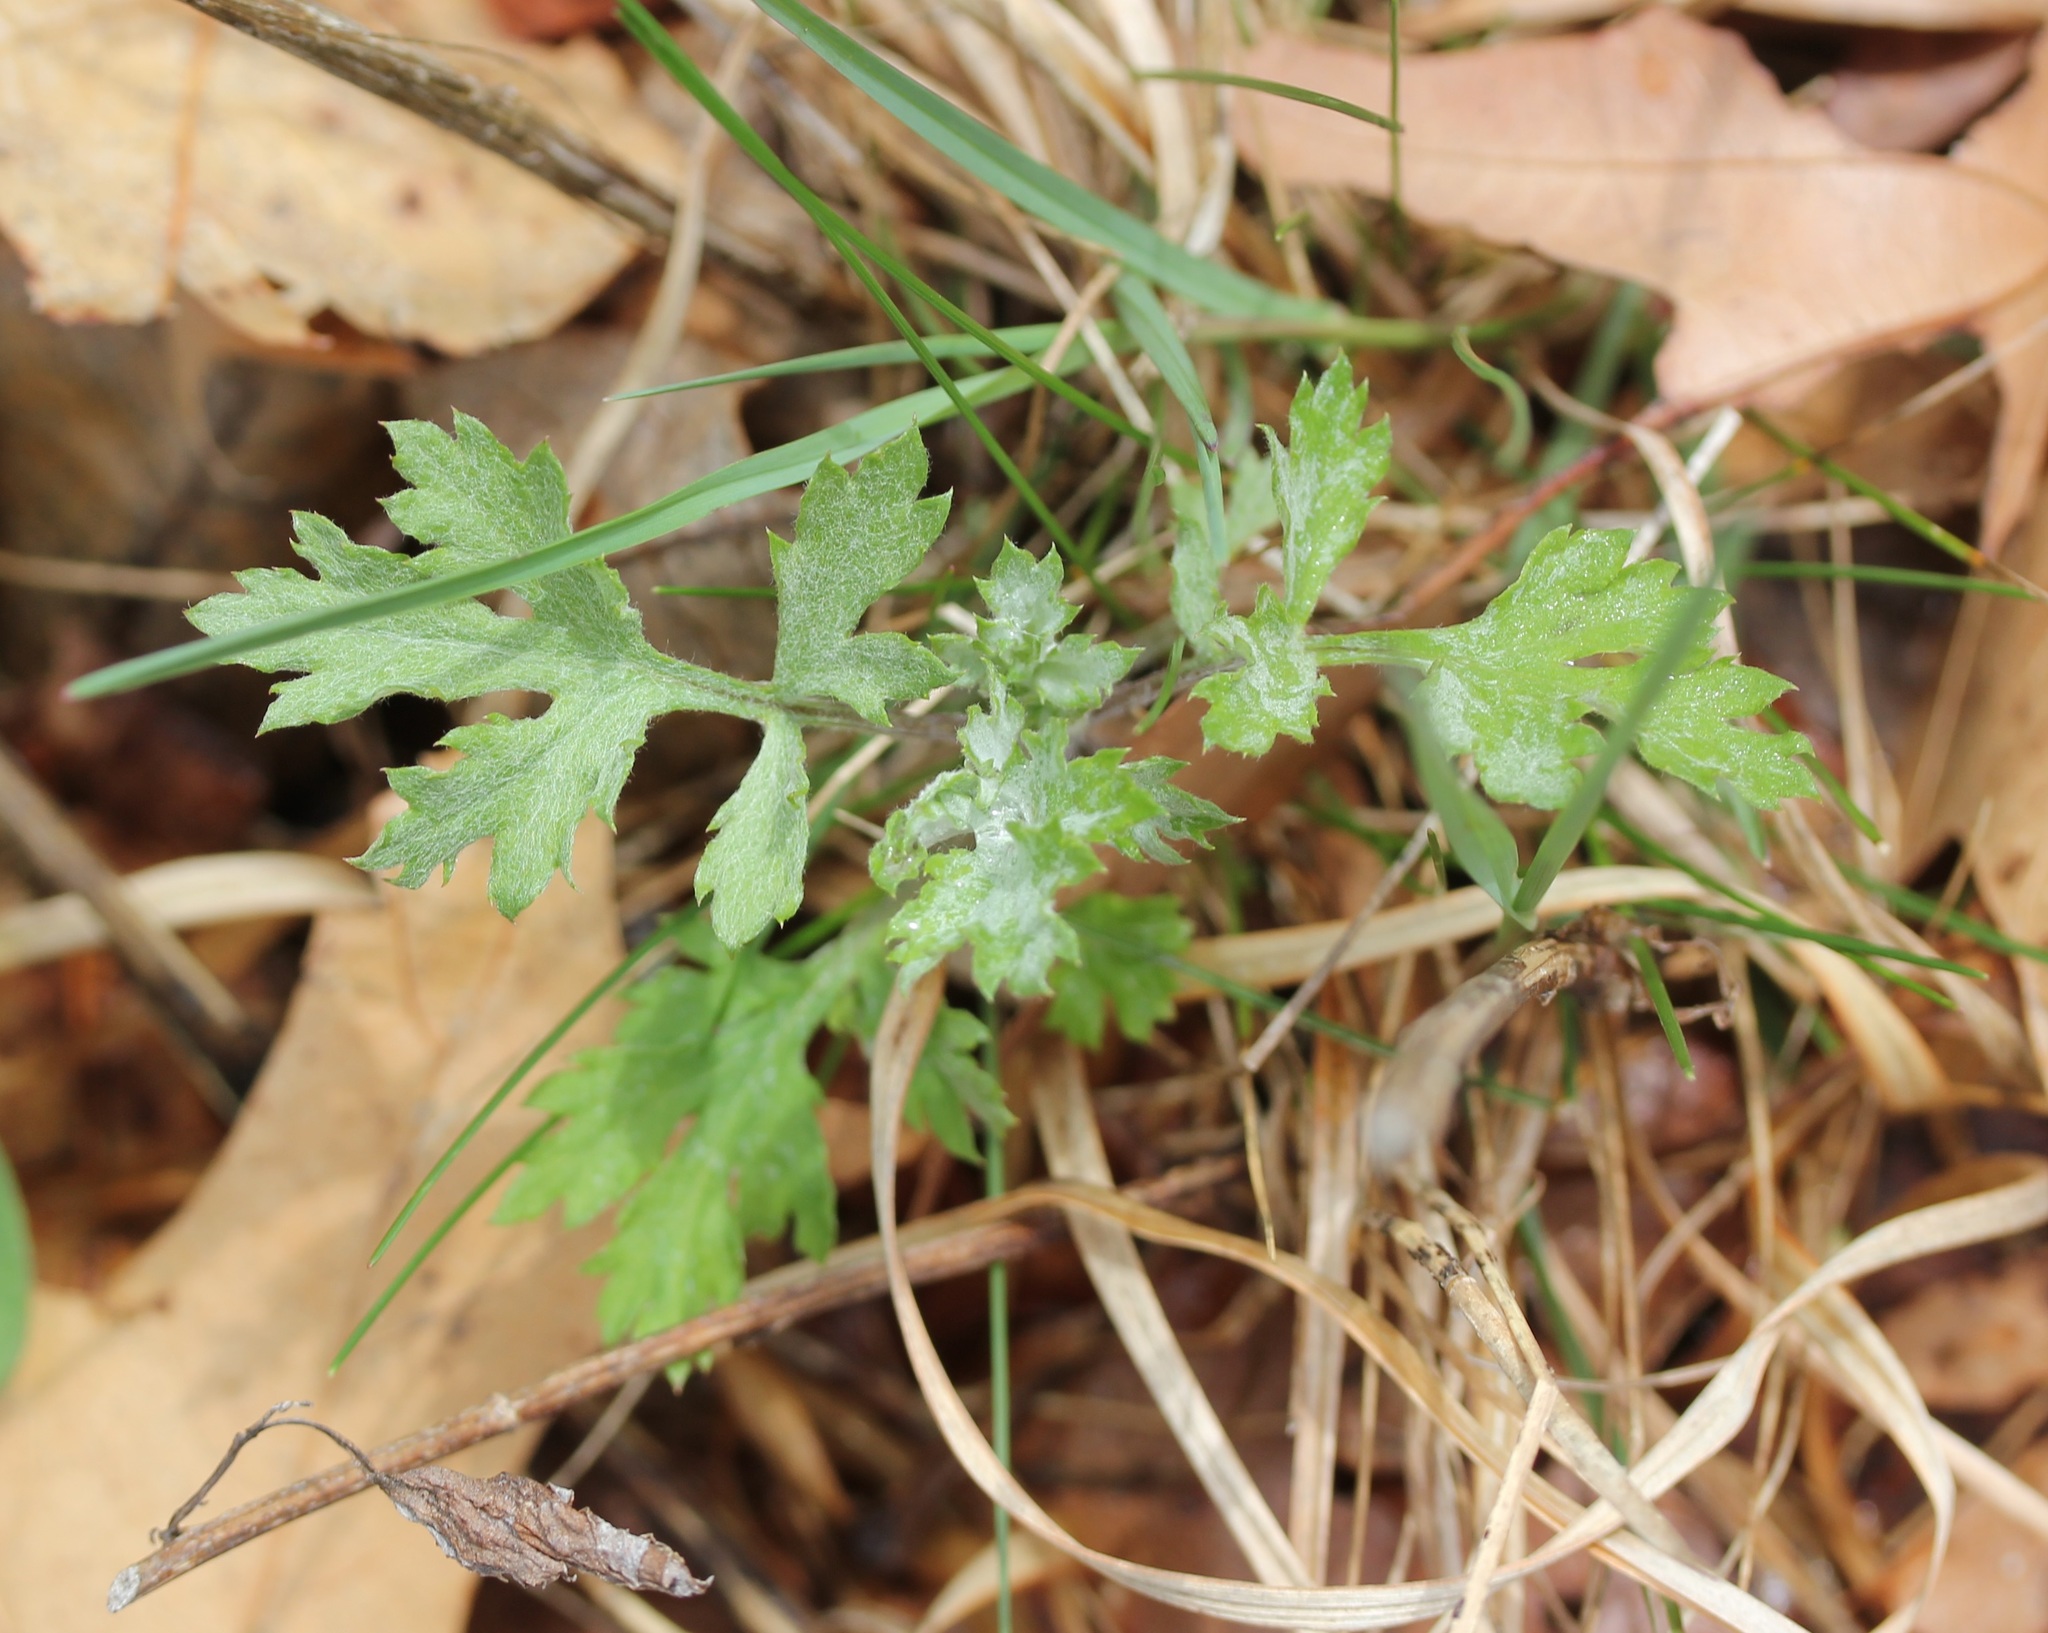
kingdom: Plantae
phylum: Tracheophyta
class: Magnoliopsida
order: Asterales
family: Asteraceae
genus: Artemisia
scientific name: Artemisia vulgaris
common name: Mugwort
